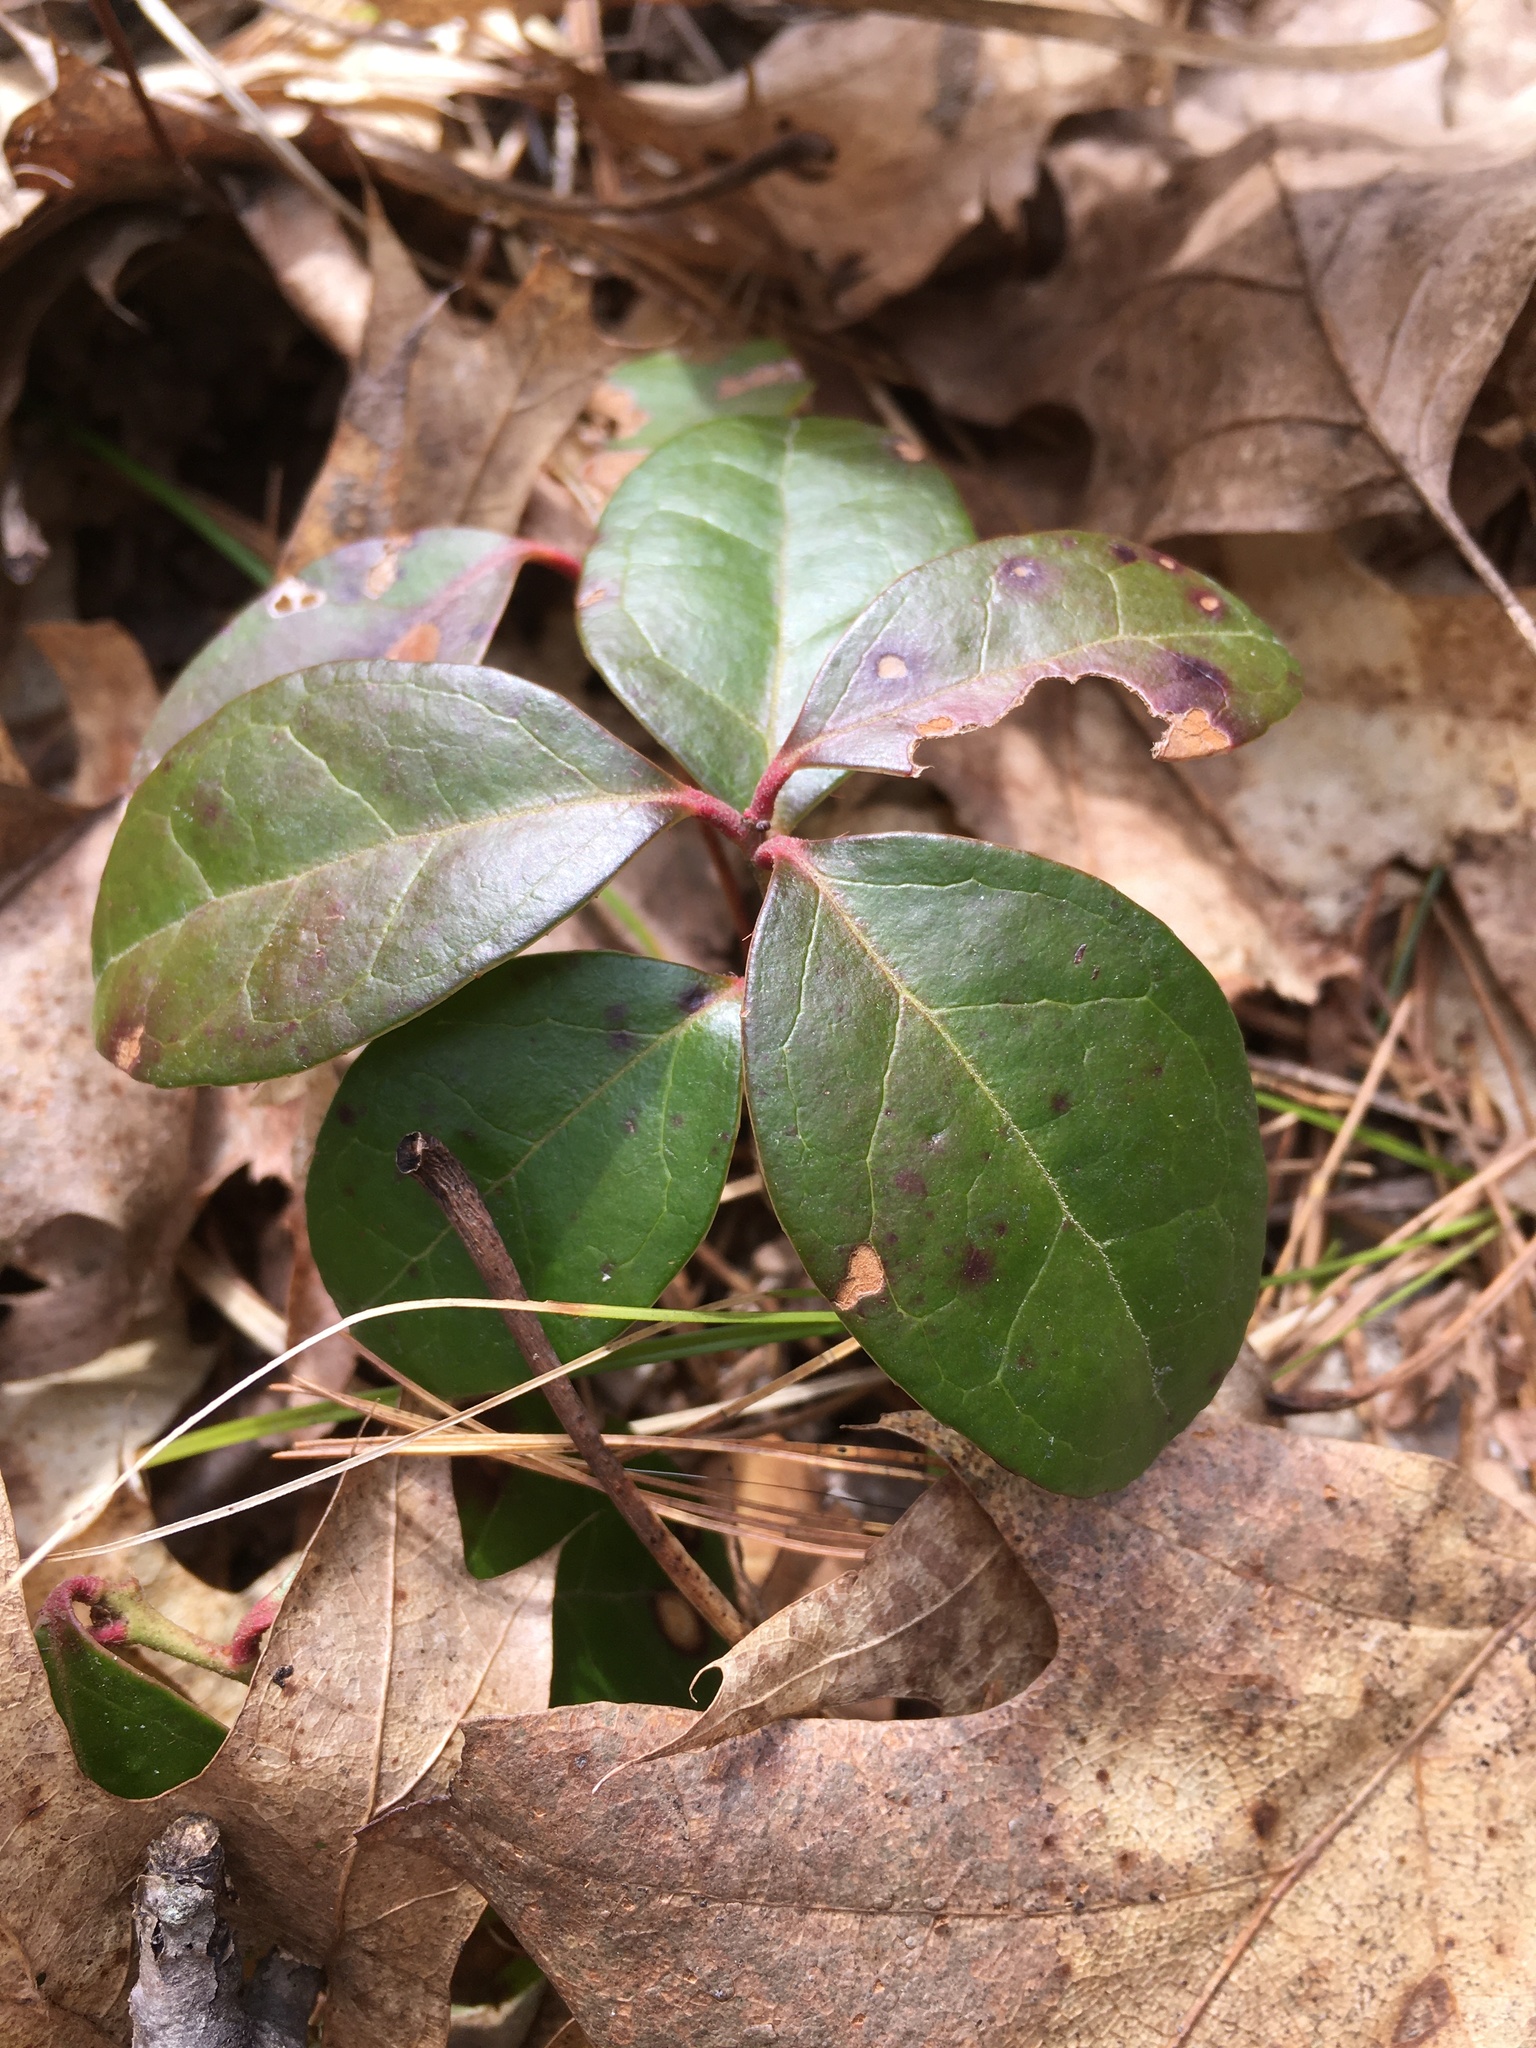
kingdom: Plantae
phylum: Tracheophyta
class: Magnoliopsida
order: Ericales
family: Ericaceae
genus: Gaultheria
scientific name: Gaultheria procumbens
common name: Checkerberry
